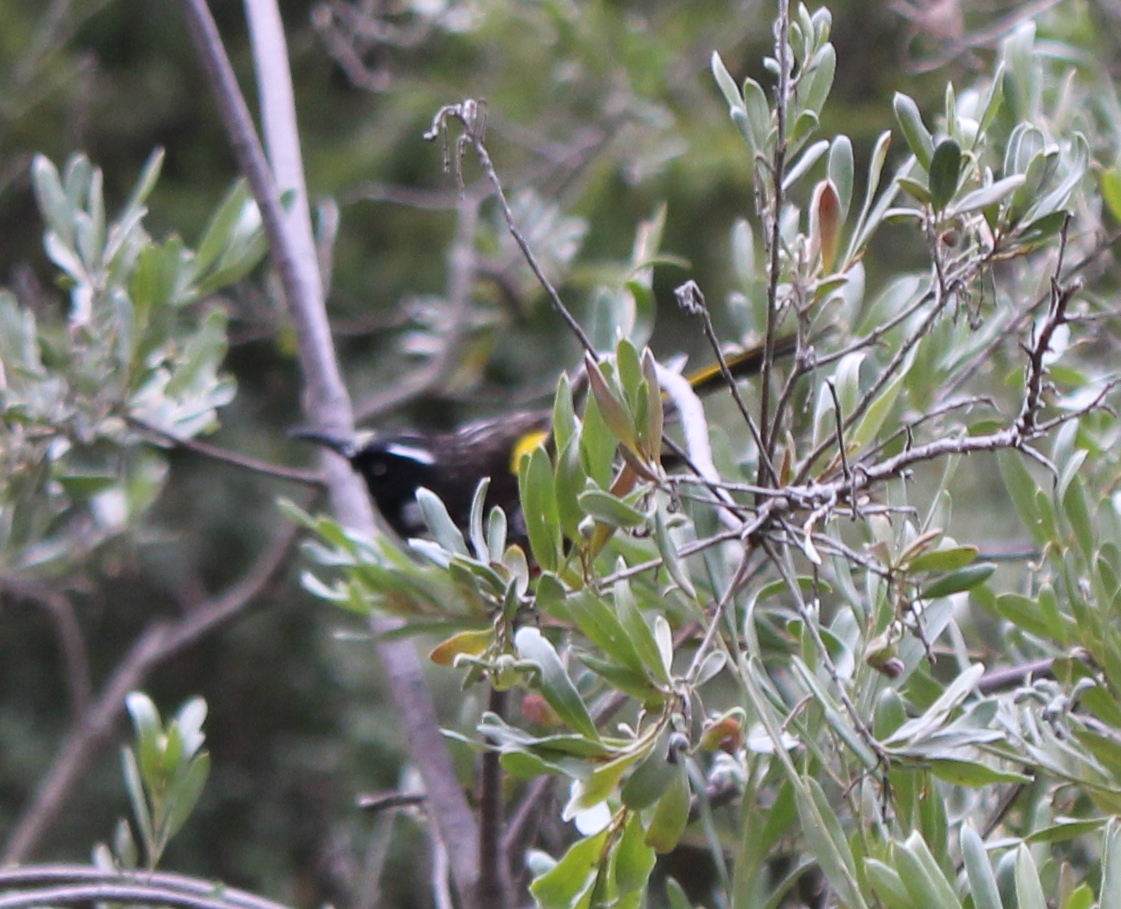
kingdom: Animalia
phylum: Chordata
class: Aves
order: Passeriformes
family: Meliphagidae
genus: Phylidonyris
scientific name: Phylidonyris novaehollandiae
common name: New holland honeyeater
